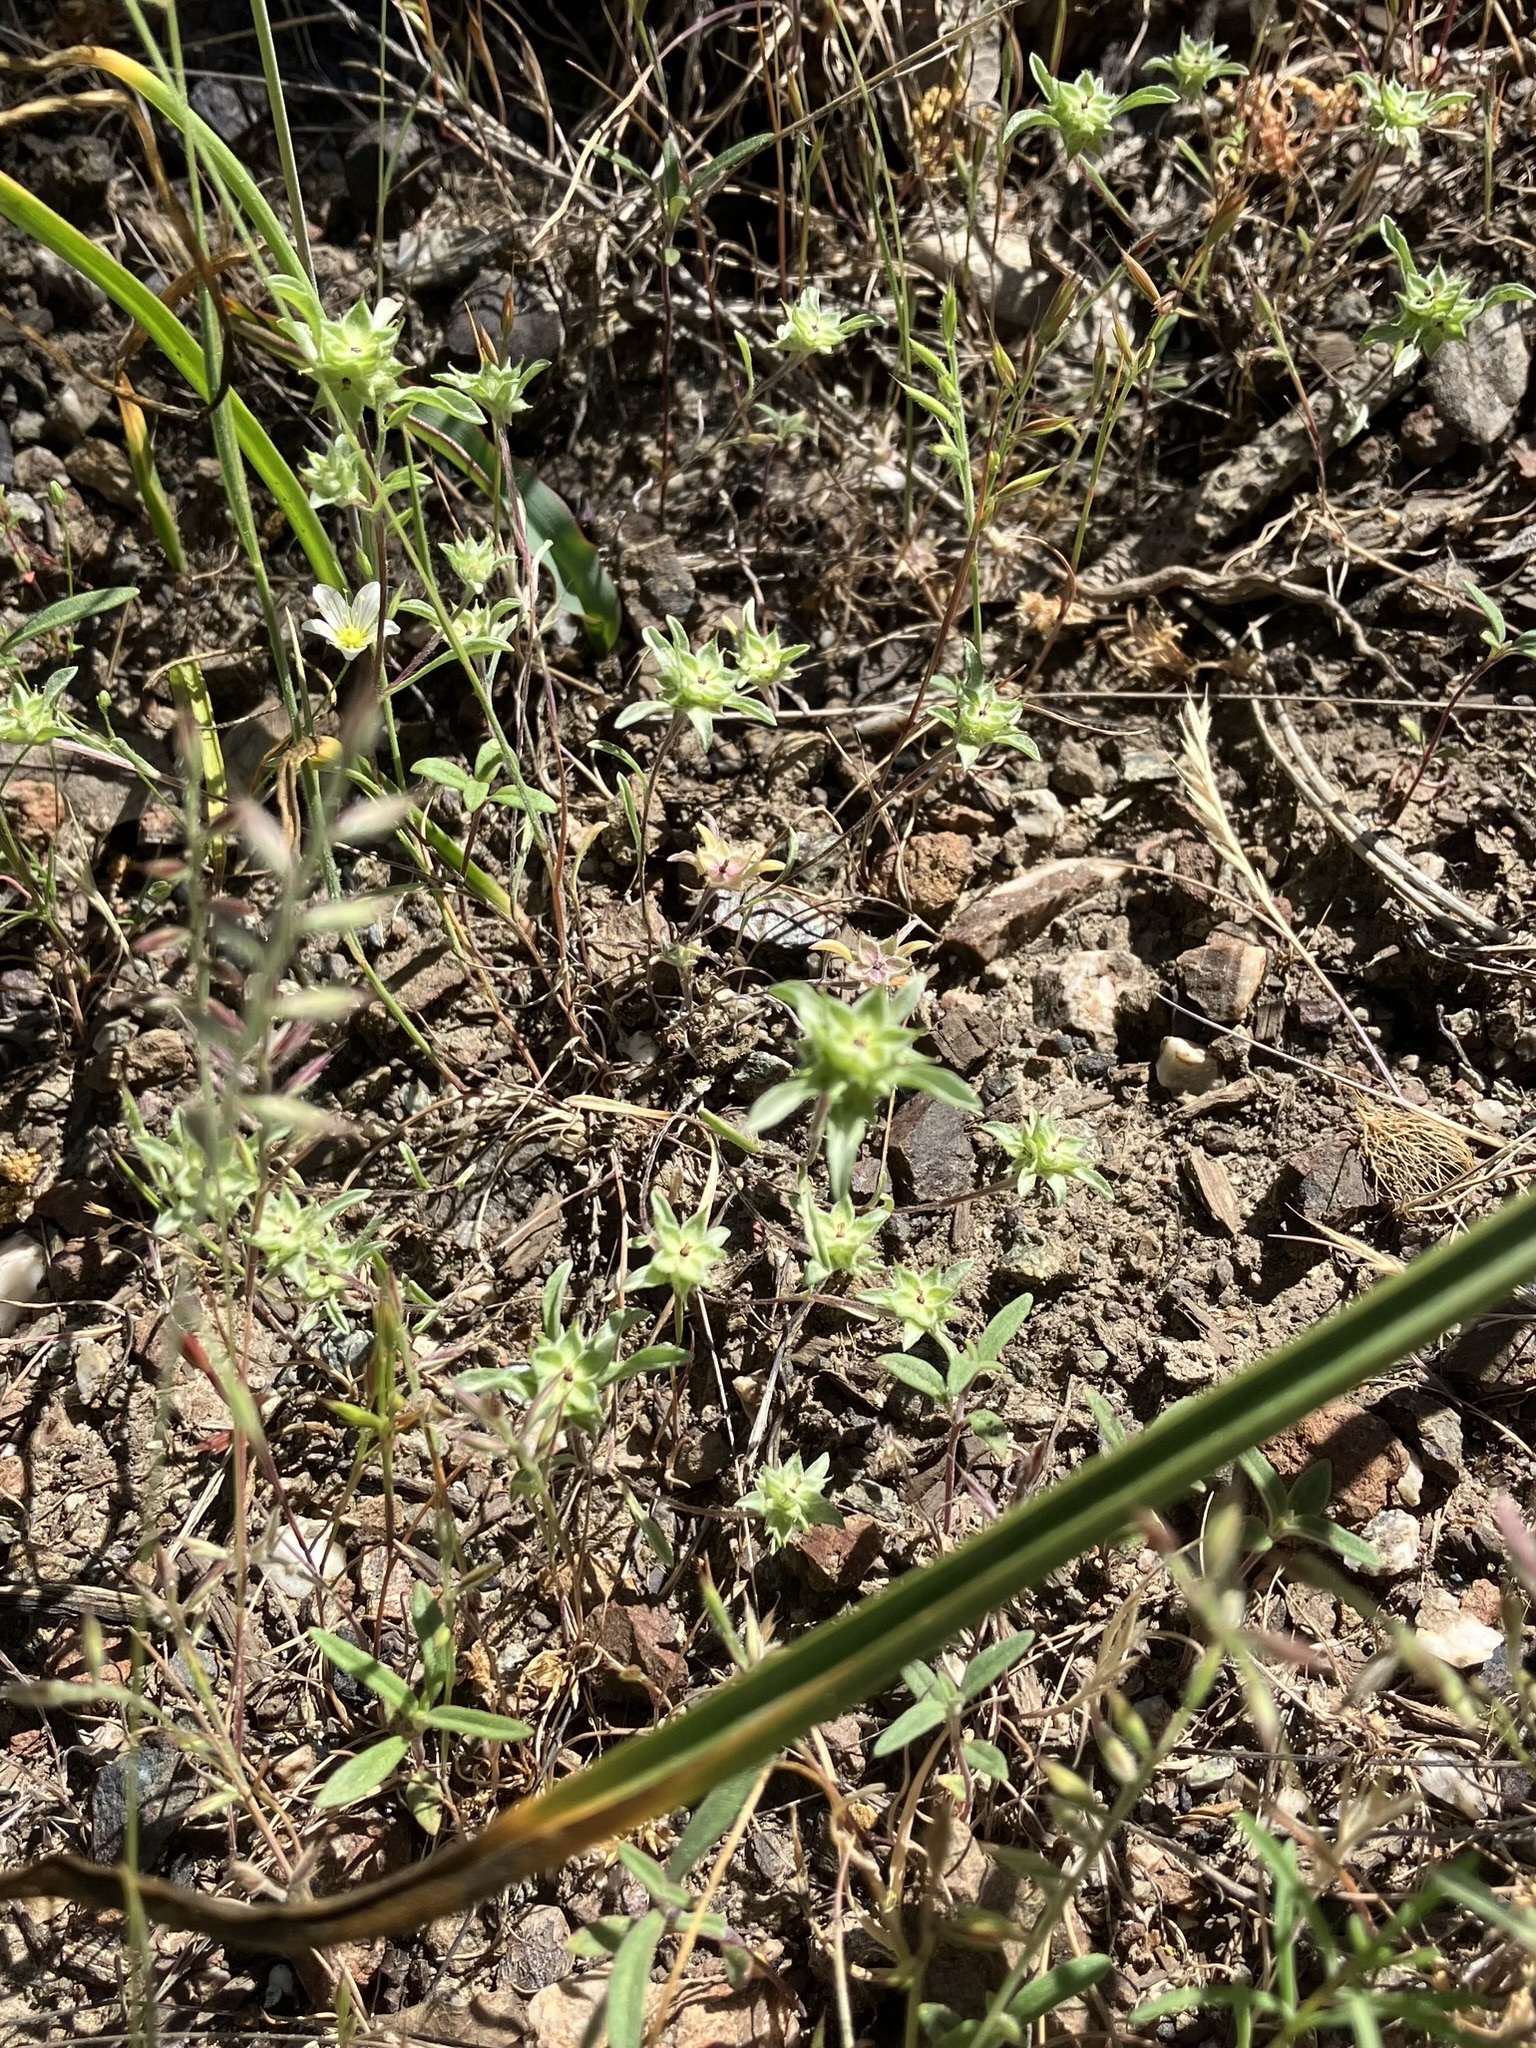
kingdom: Plantae
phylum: Tracheophyta
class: Magnoliopsida
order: Asterales
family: Asteraceae
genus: Ancistrocarphus
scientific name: Ancistrocarphus filagineus
